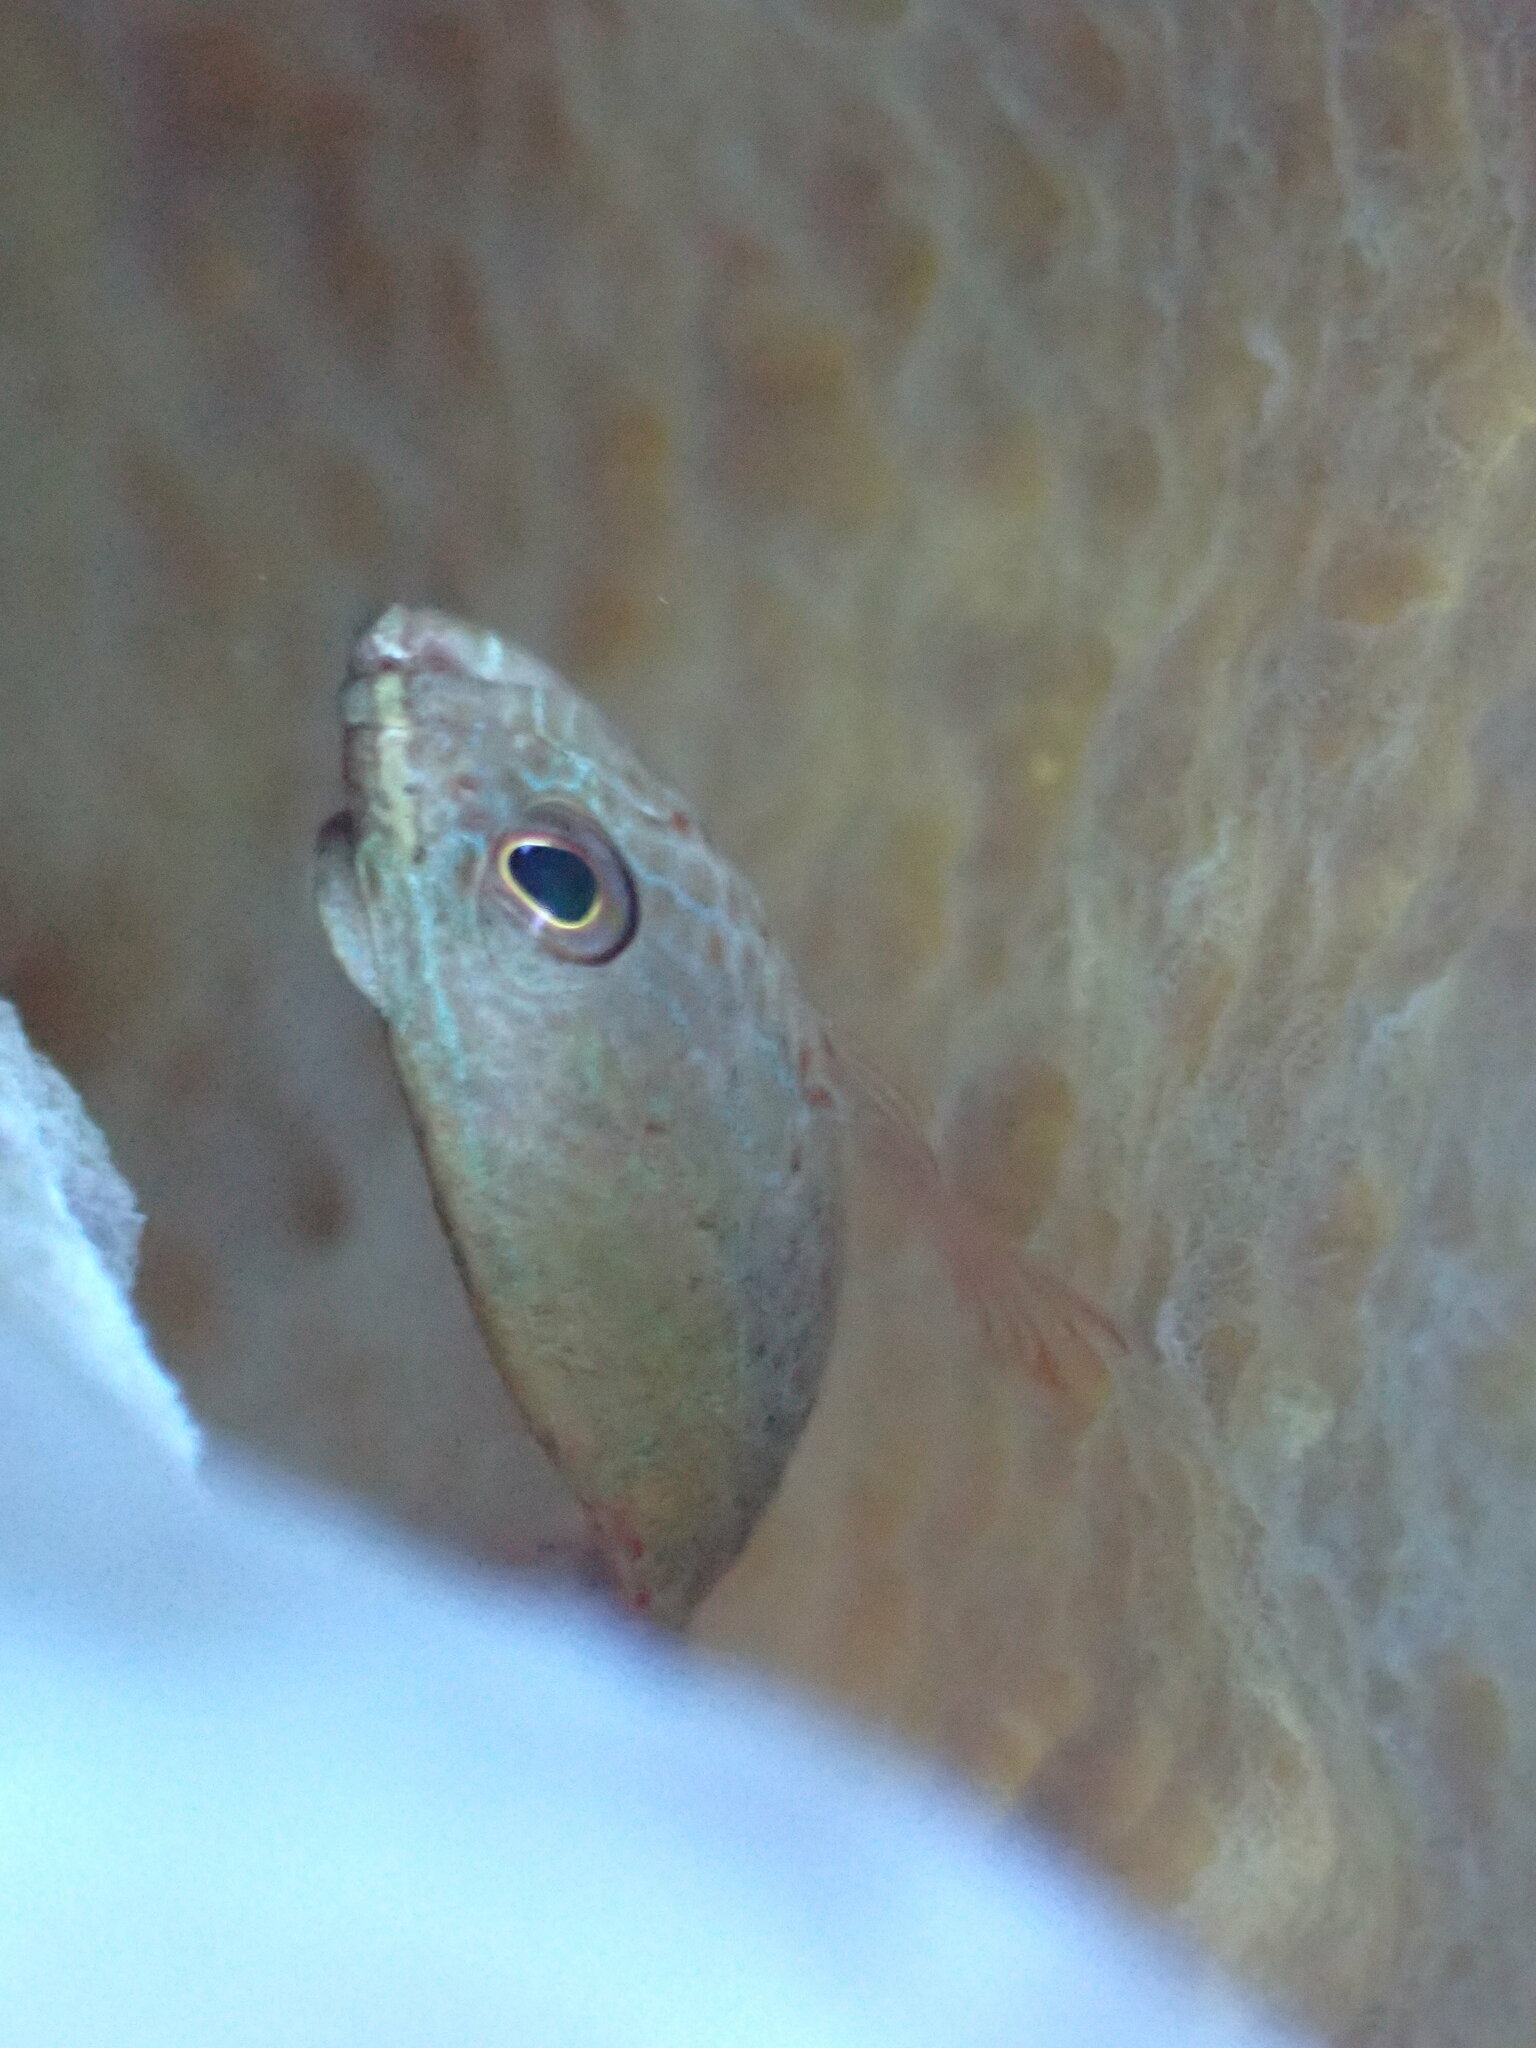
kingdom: Animalia
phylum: Chordata
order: Perciformes
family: Serranidae
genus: Cephalopholis
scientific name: Cephalopholis cruentata
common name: Graysby
